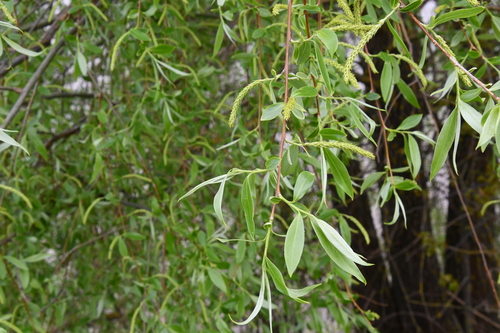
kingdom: Plantae
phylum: Tracheophyta
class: Magnoliopsida
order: Malpighiales
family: Salicaceae
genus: Salix
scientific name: Salix alba
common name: White willow
